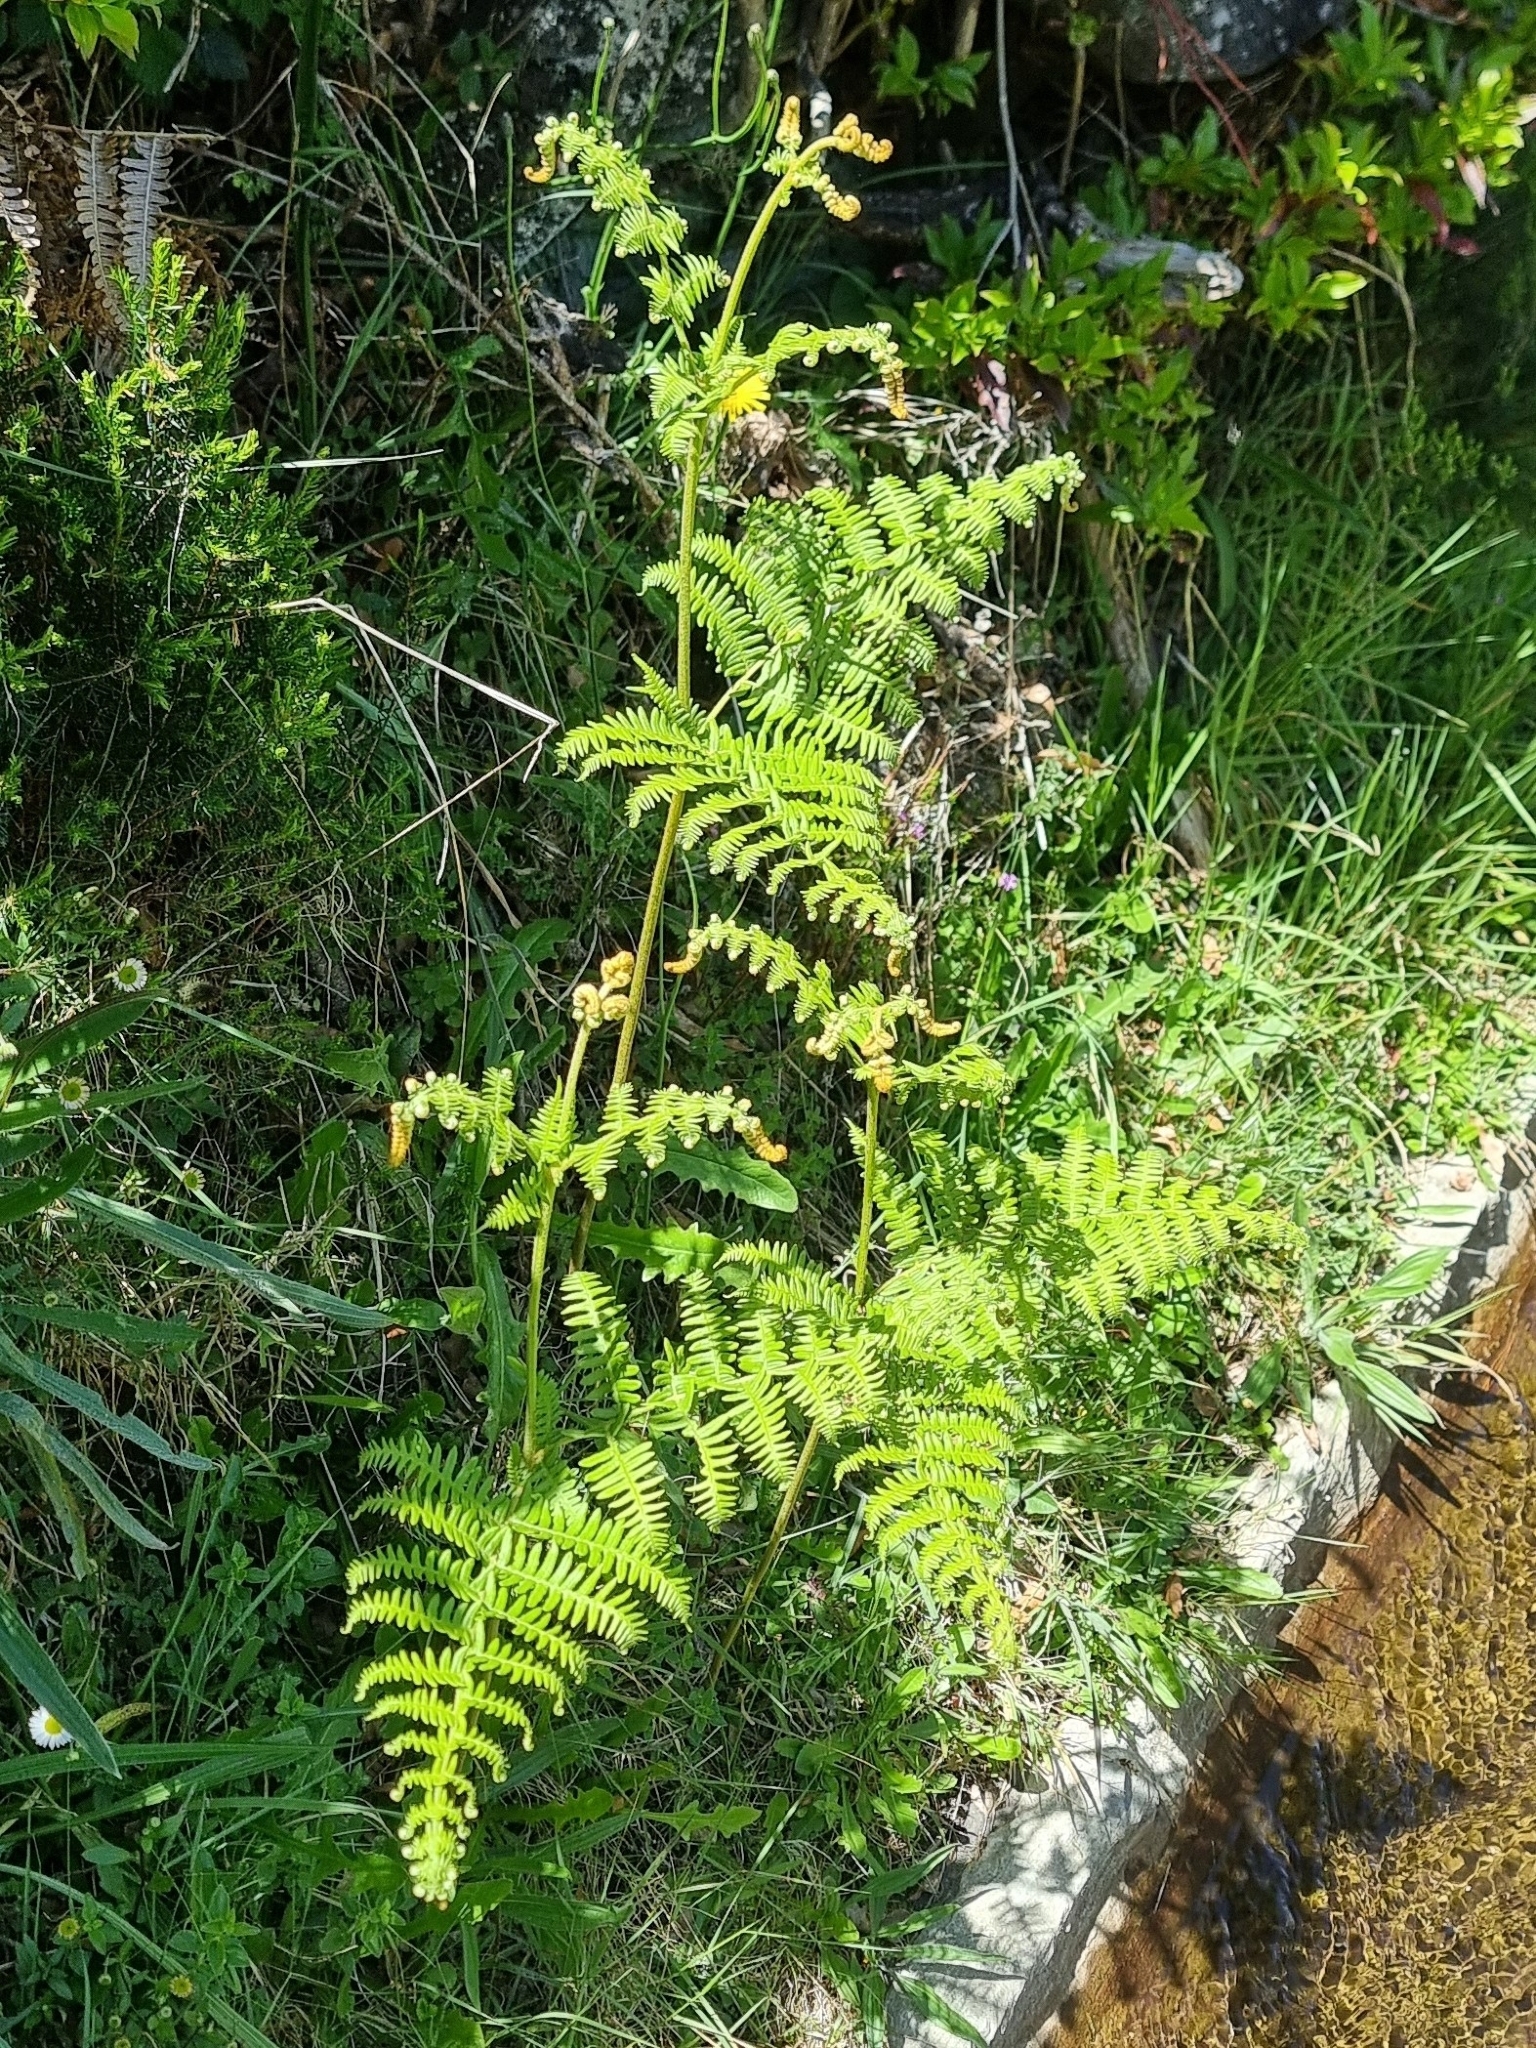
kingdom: Plantae
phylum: Tracheophyta
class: Polypodiopsida
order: Polypodiales
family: Dennstaedtiaceae
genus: Pteridium
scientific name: Pteridium aquilinum
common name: Bracken
